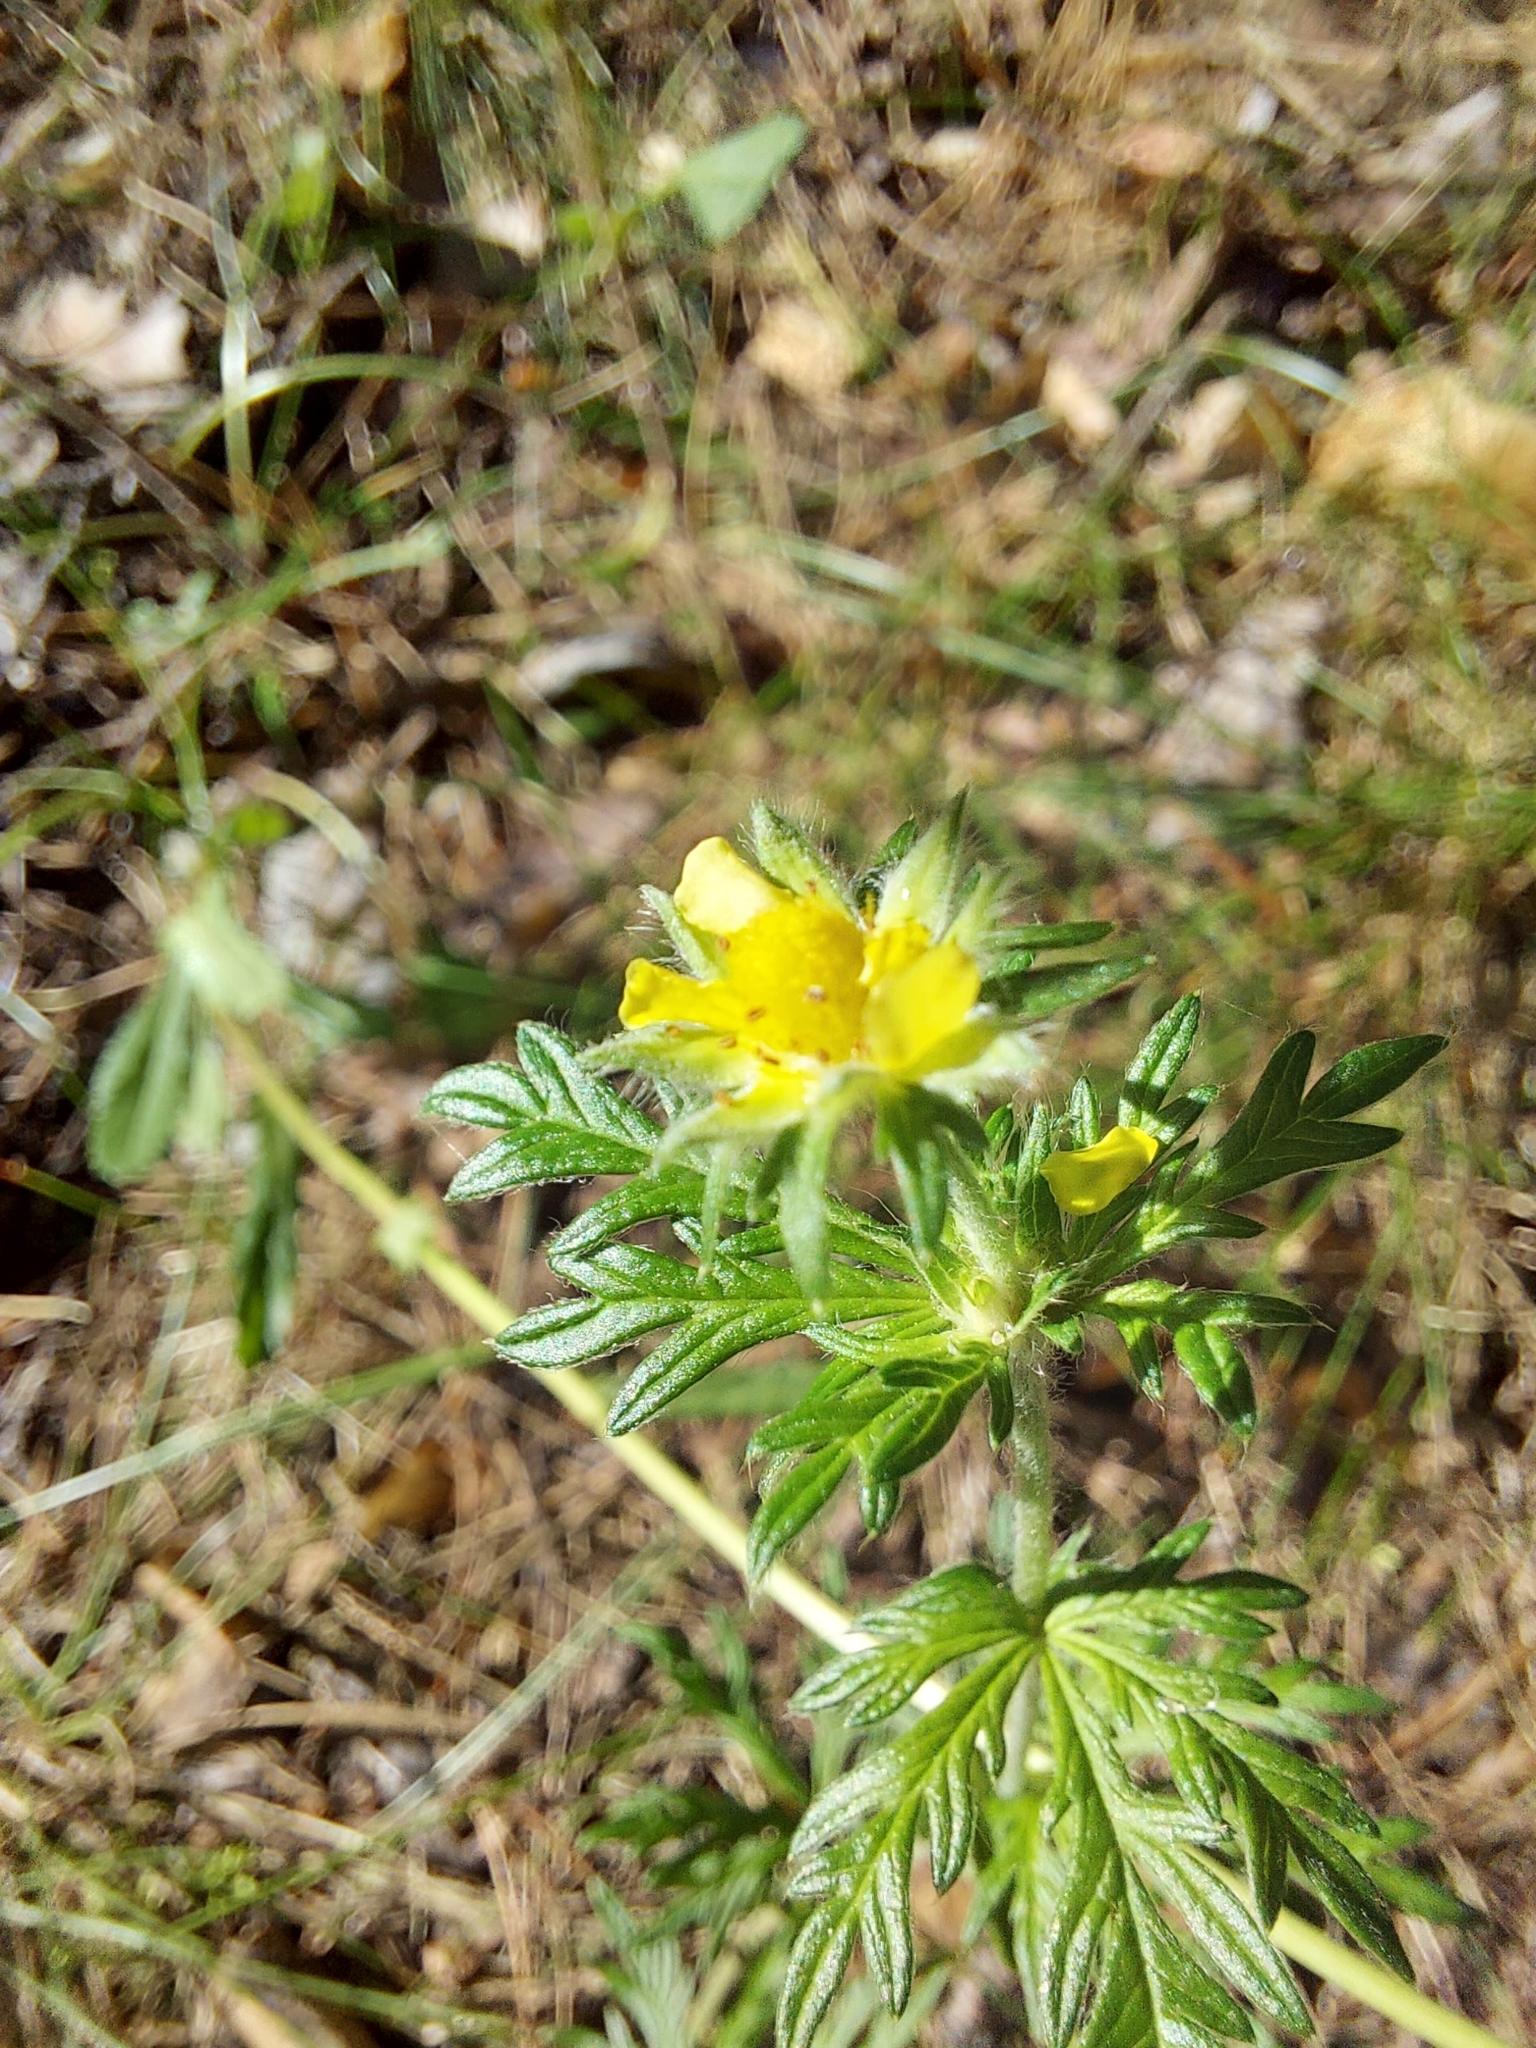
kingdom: Plantae
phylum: Tracheophyta
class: Magnoliopsida
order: Rosales
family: Rosaceae
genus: Potentilla
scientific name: Potentilla argentea
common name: Hoary cinquefoil
